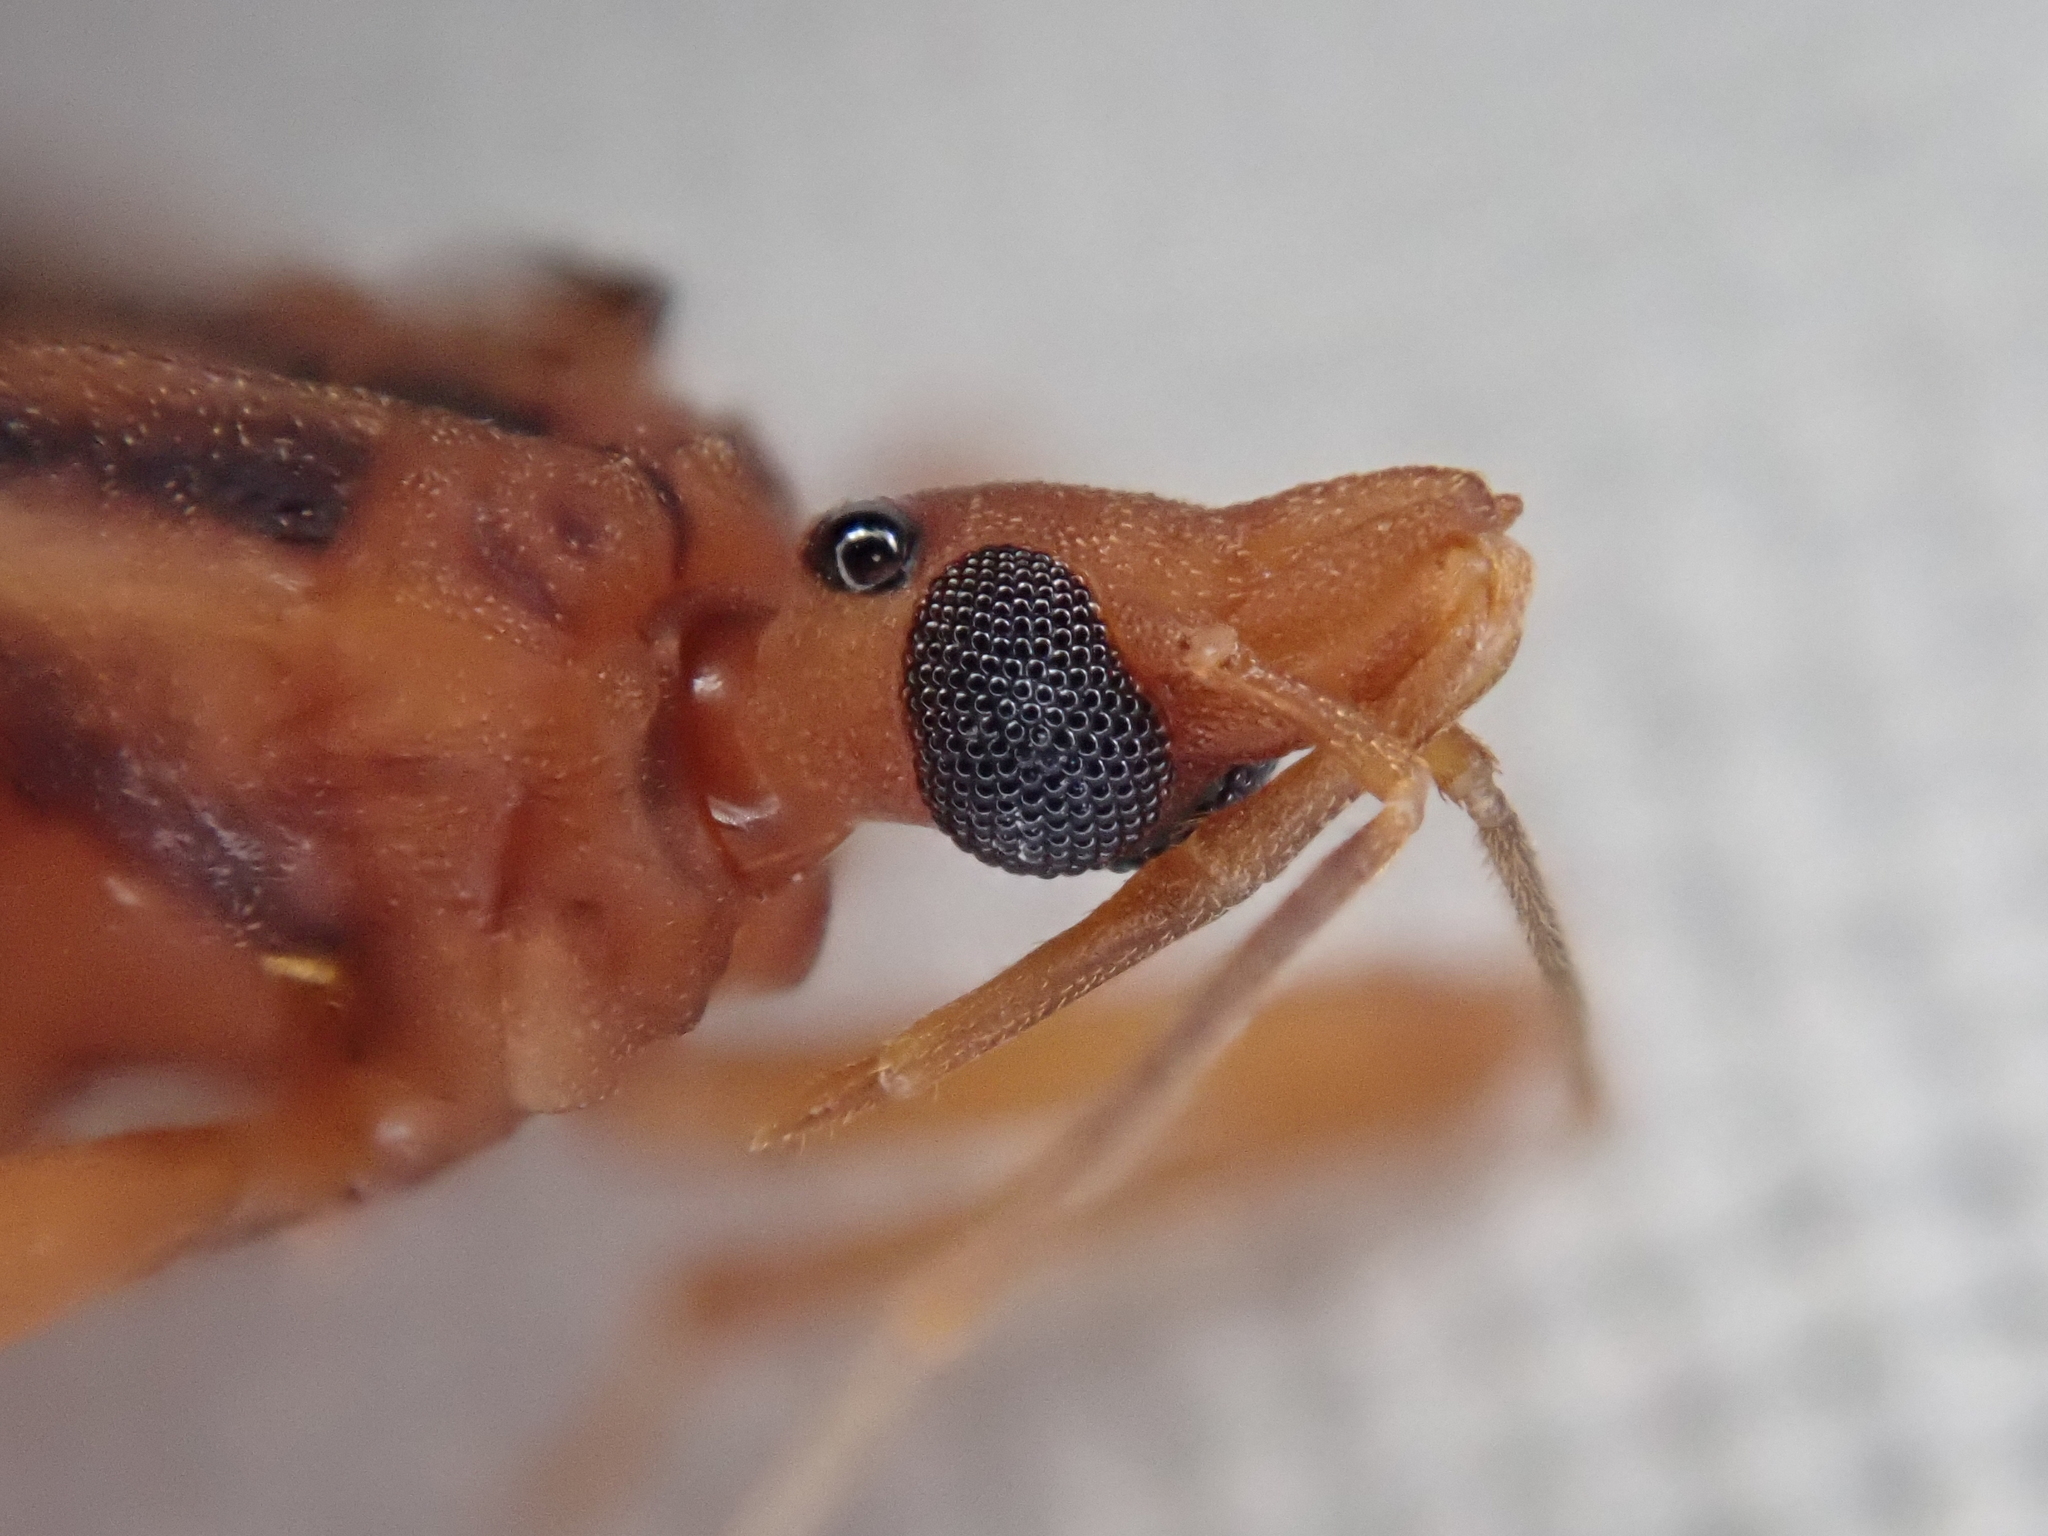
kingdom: Animalia
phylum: Arthropoda
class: Insecta
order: Hemiptera
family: Reduviidae
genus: Panstrongylus
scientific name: Panstrongylus lenti
